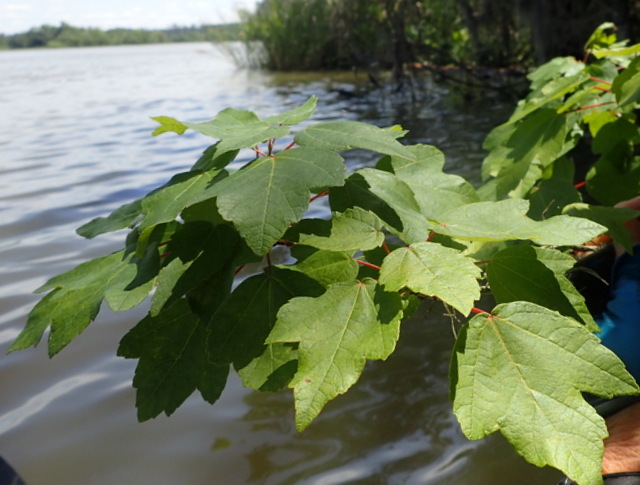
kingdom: Plantae
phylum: Tracheophyta
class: Magnoliopsida
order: Sapindales
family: Sapindaceae
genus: Acer
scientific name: Acer rubrum
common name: Red maple
